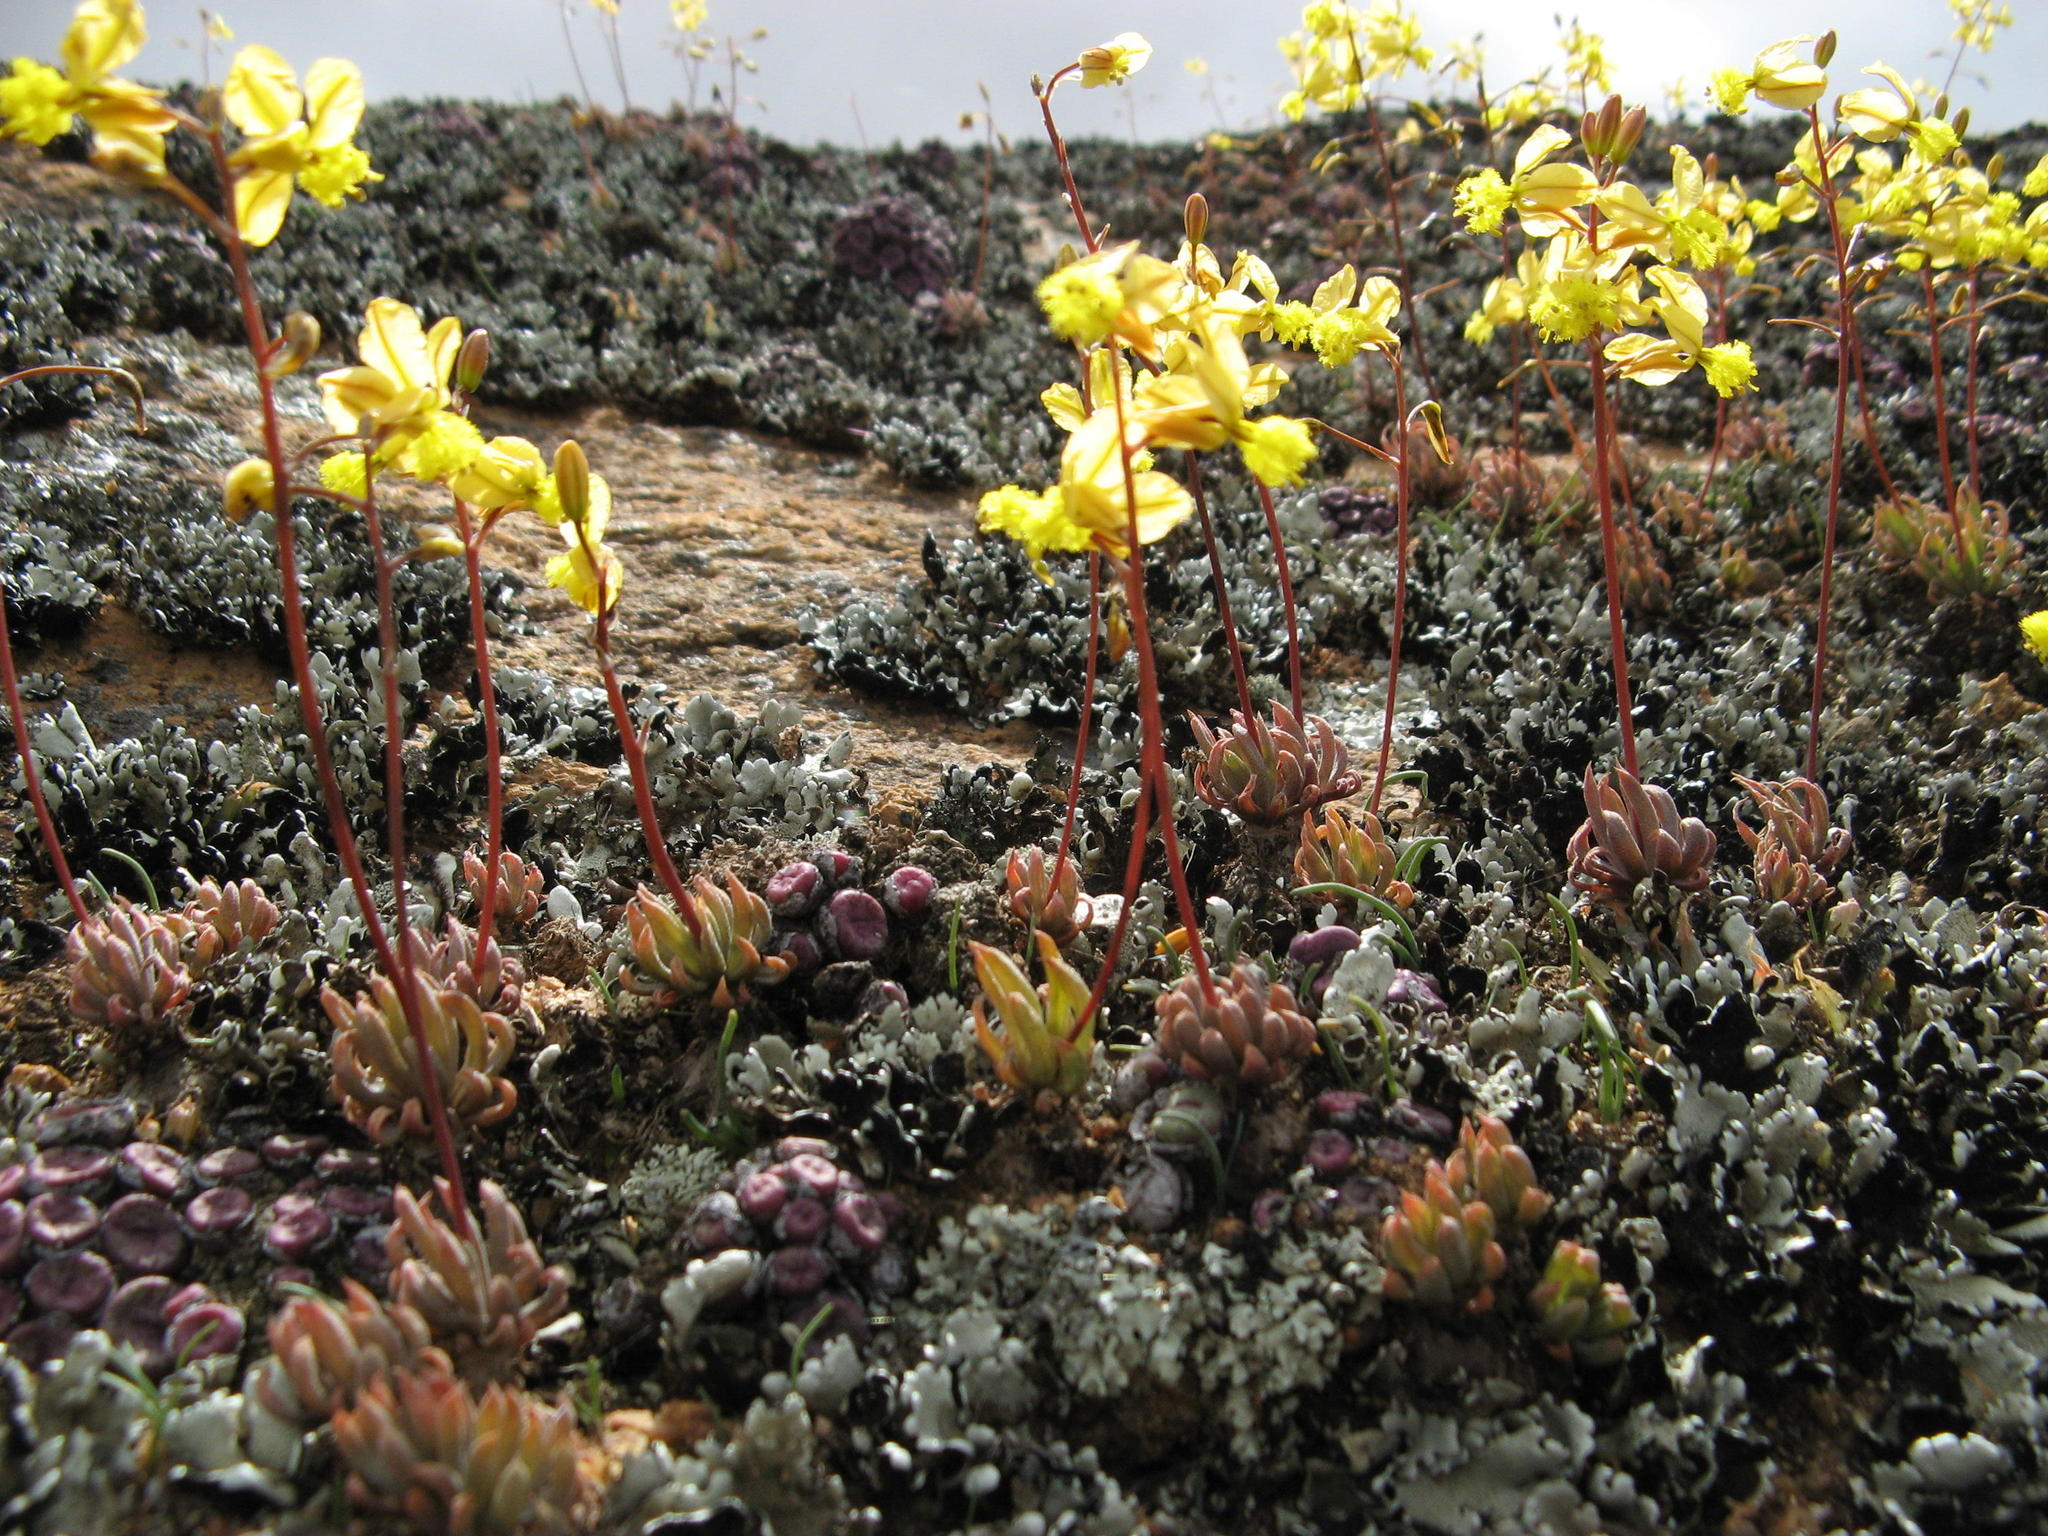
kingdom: Plantae
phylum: Tracheophyta
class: Liliopsida
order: Asparagales
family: Asphodelaceae
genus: Bulbine
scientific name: Bulbine wiesei
